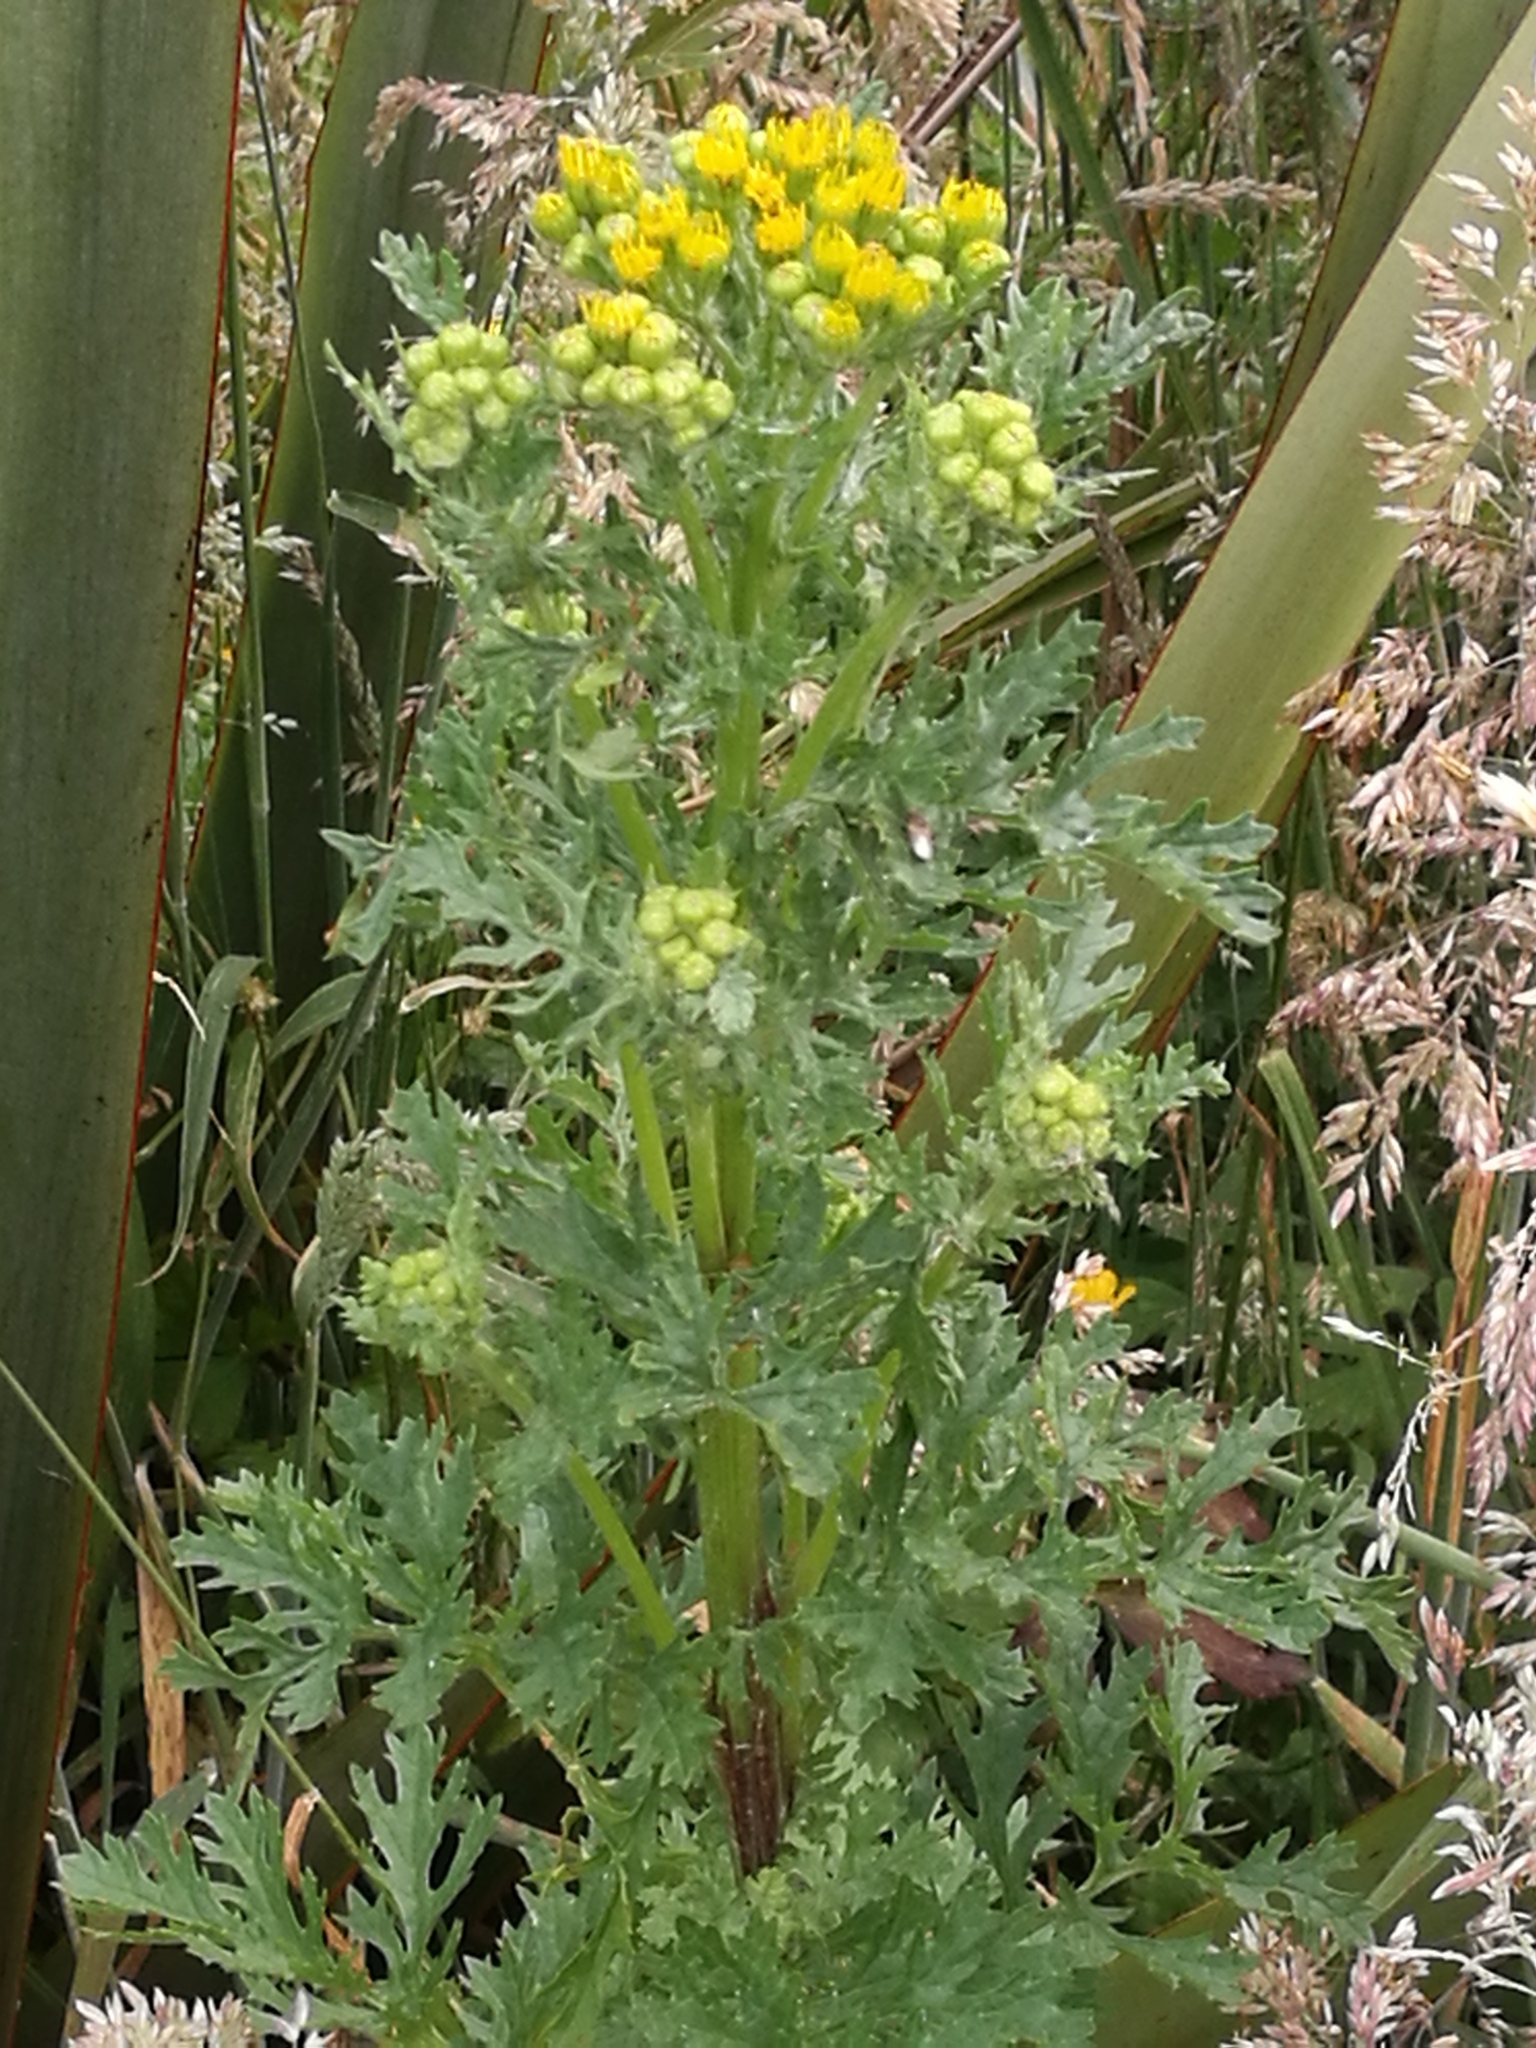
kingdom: Plantae
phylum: Tracheophyta
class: Magnoliopsida
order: Asterales
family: Asteraceae
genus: Jacobaea
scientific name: Jacobaea vulgaris
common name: Stinking willie
